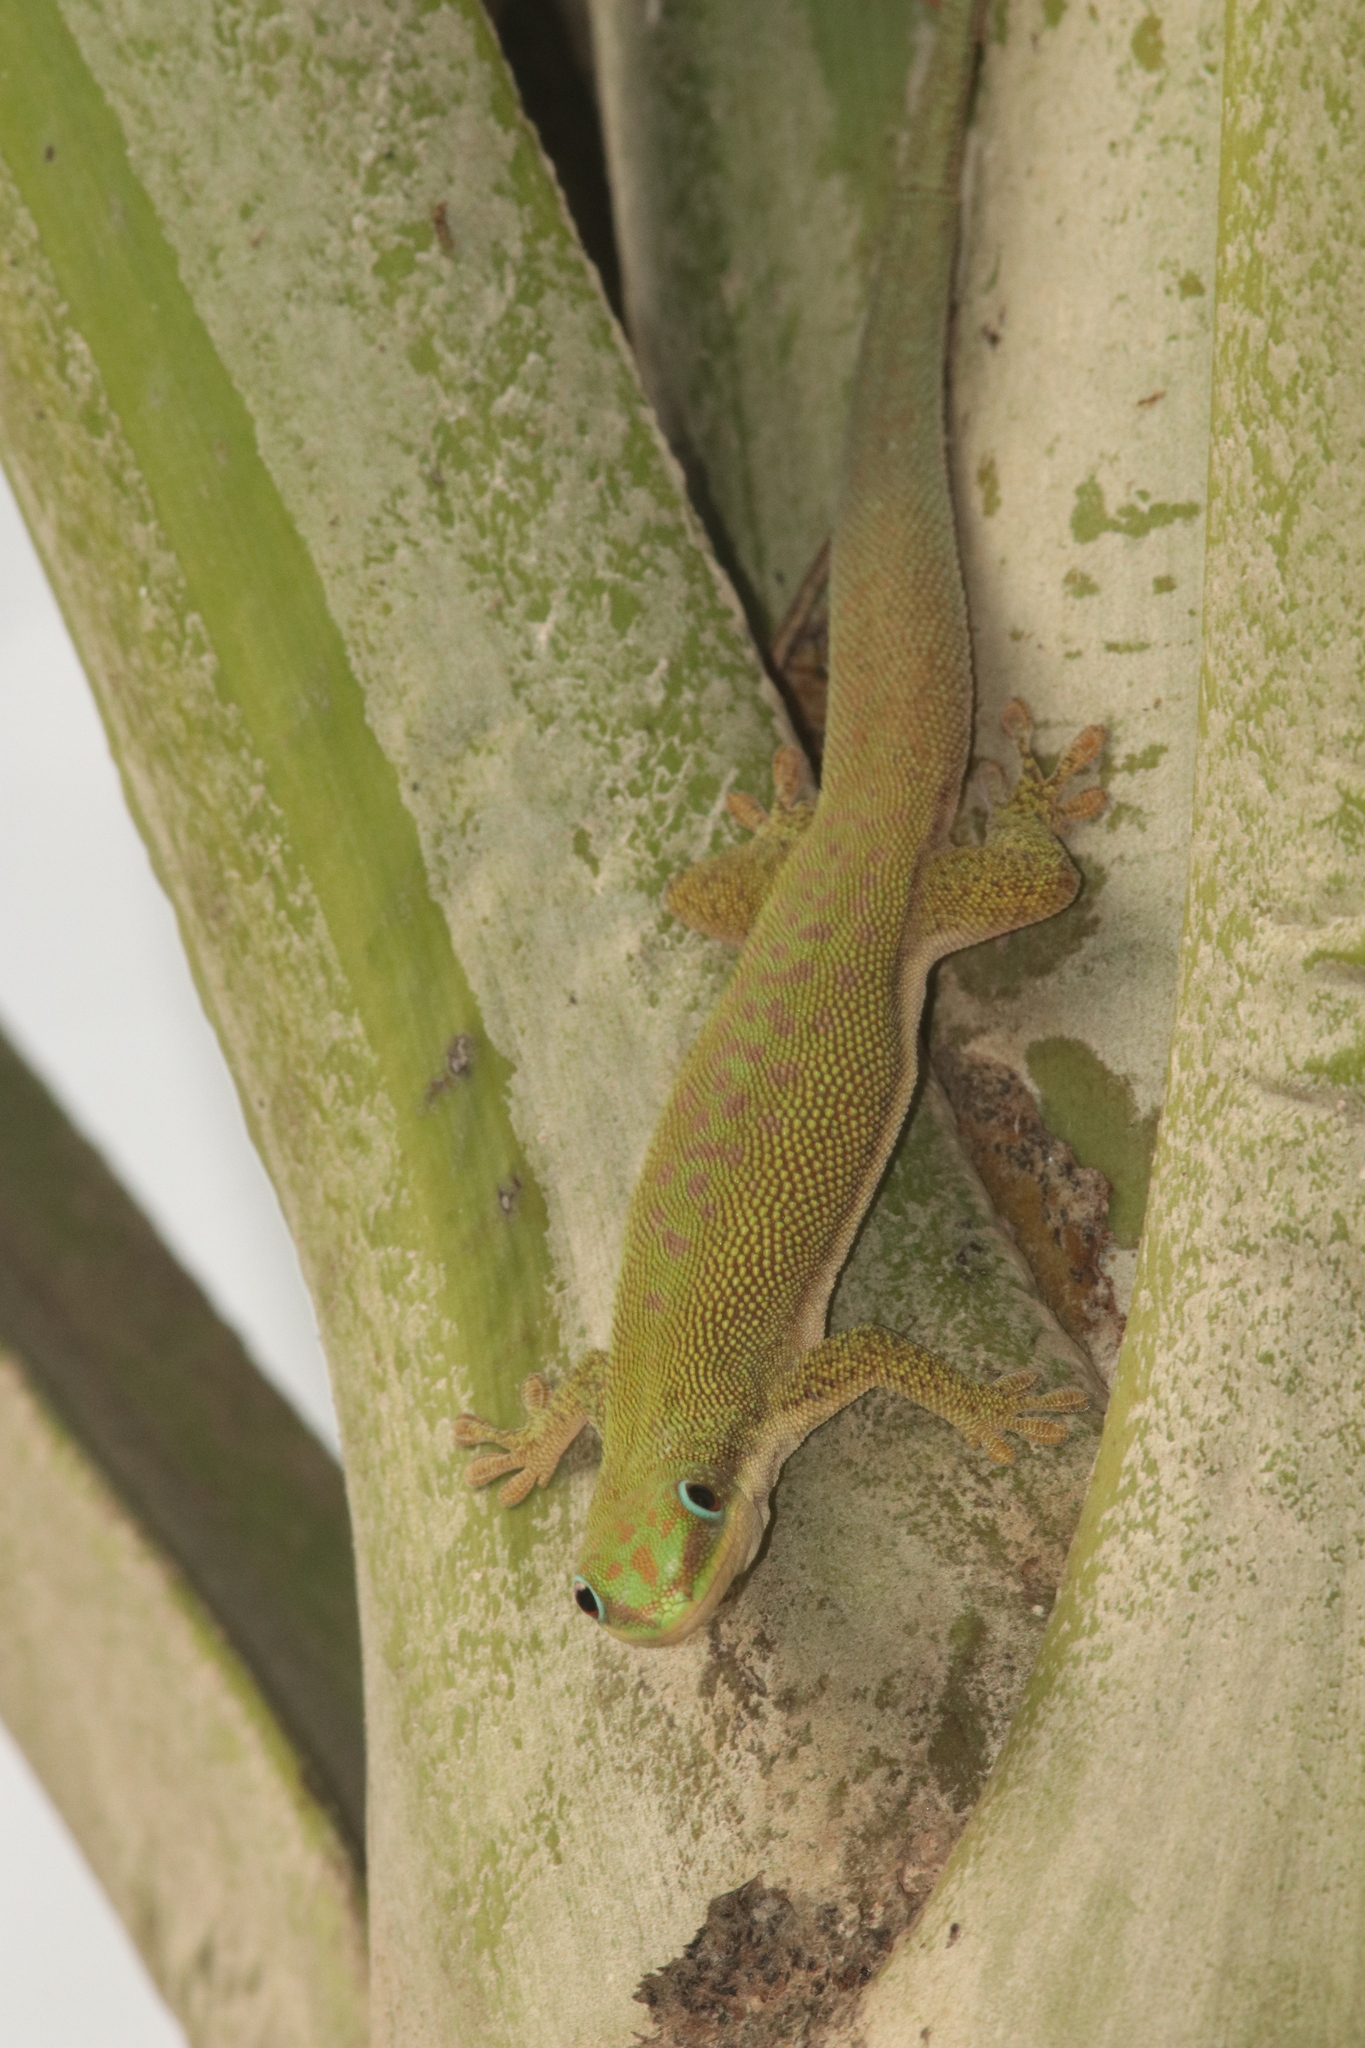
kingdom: Animalia
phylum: Chordata
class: Squamata
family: Gekkonidae
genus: Phelsuma
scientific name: Phelsuma dubia
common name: Zanzibar day gecko
